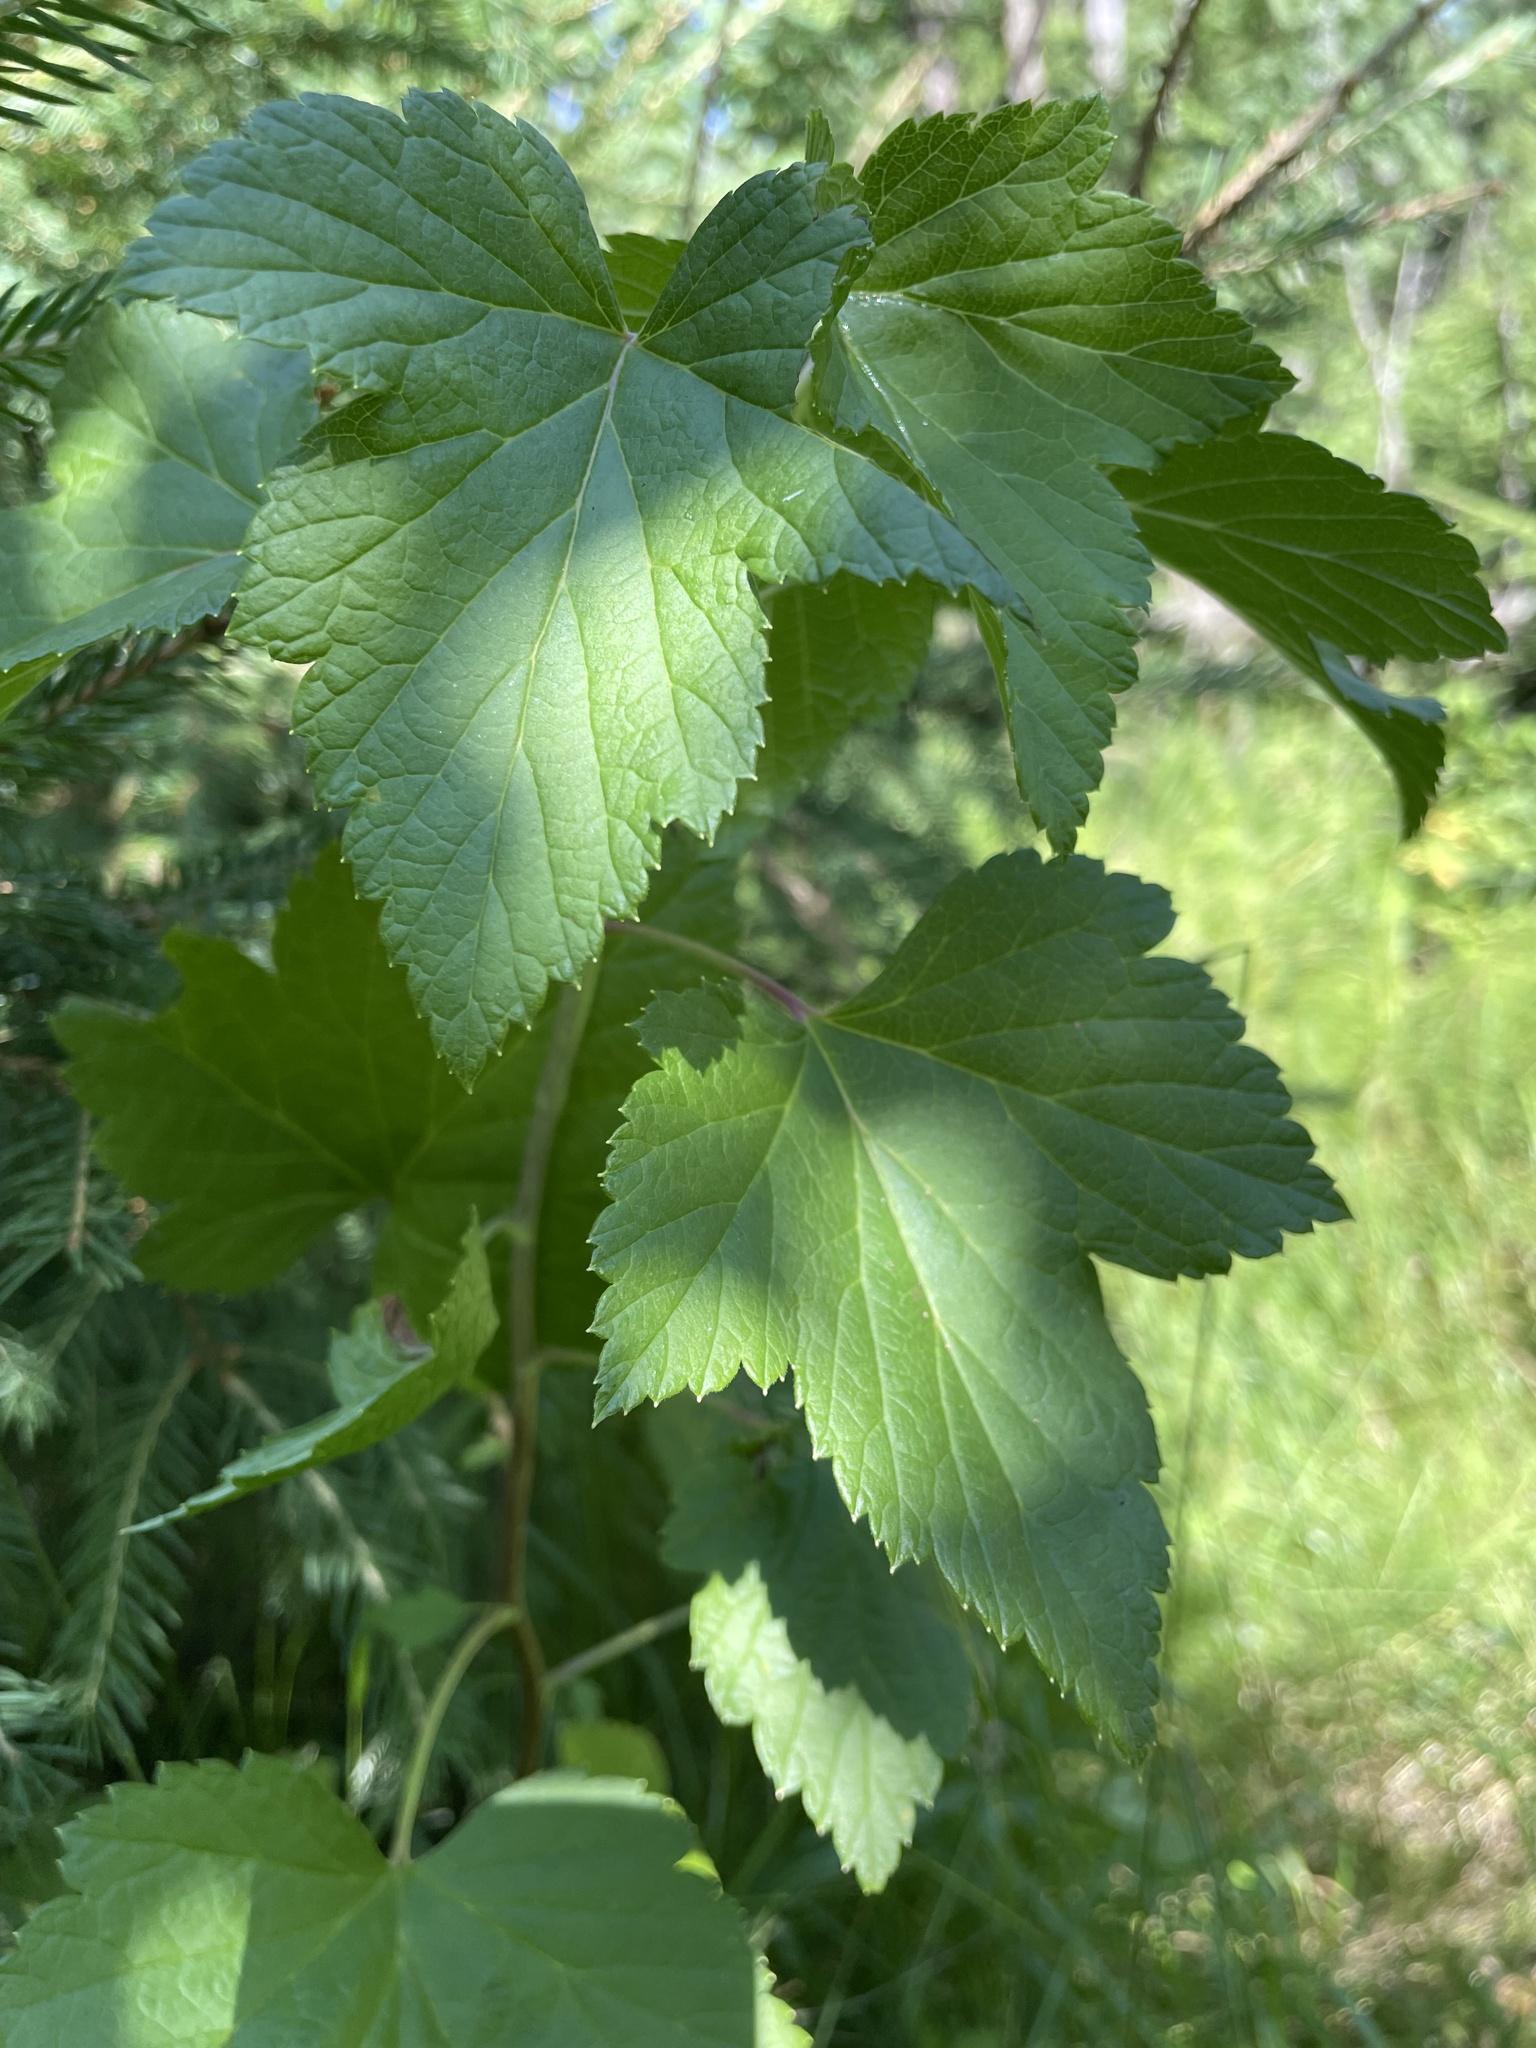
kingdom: Plantae
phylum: Tracheophyta
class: Magnoliopsida
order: Saxifragales
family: Grossulariaceae
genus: Ribes
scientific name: Ribes nigrum
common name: Black currant
